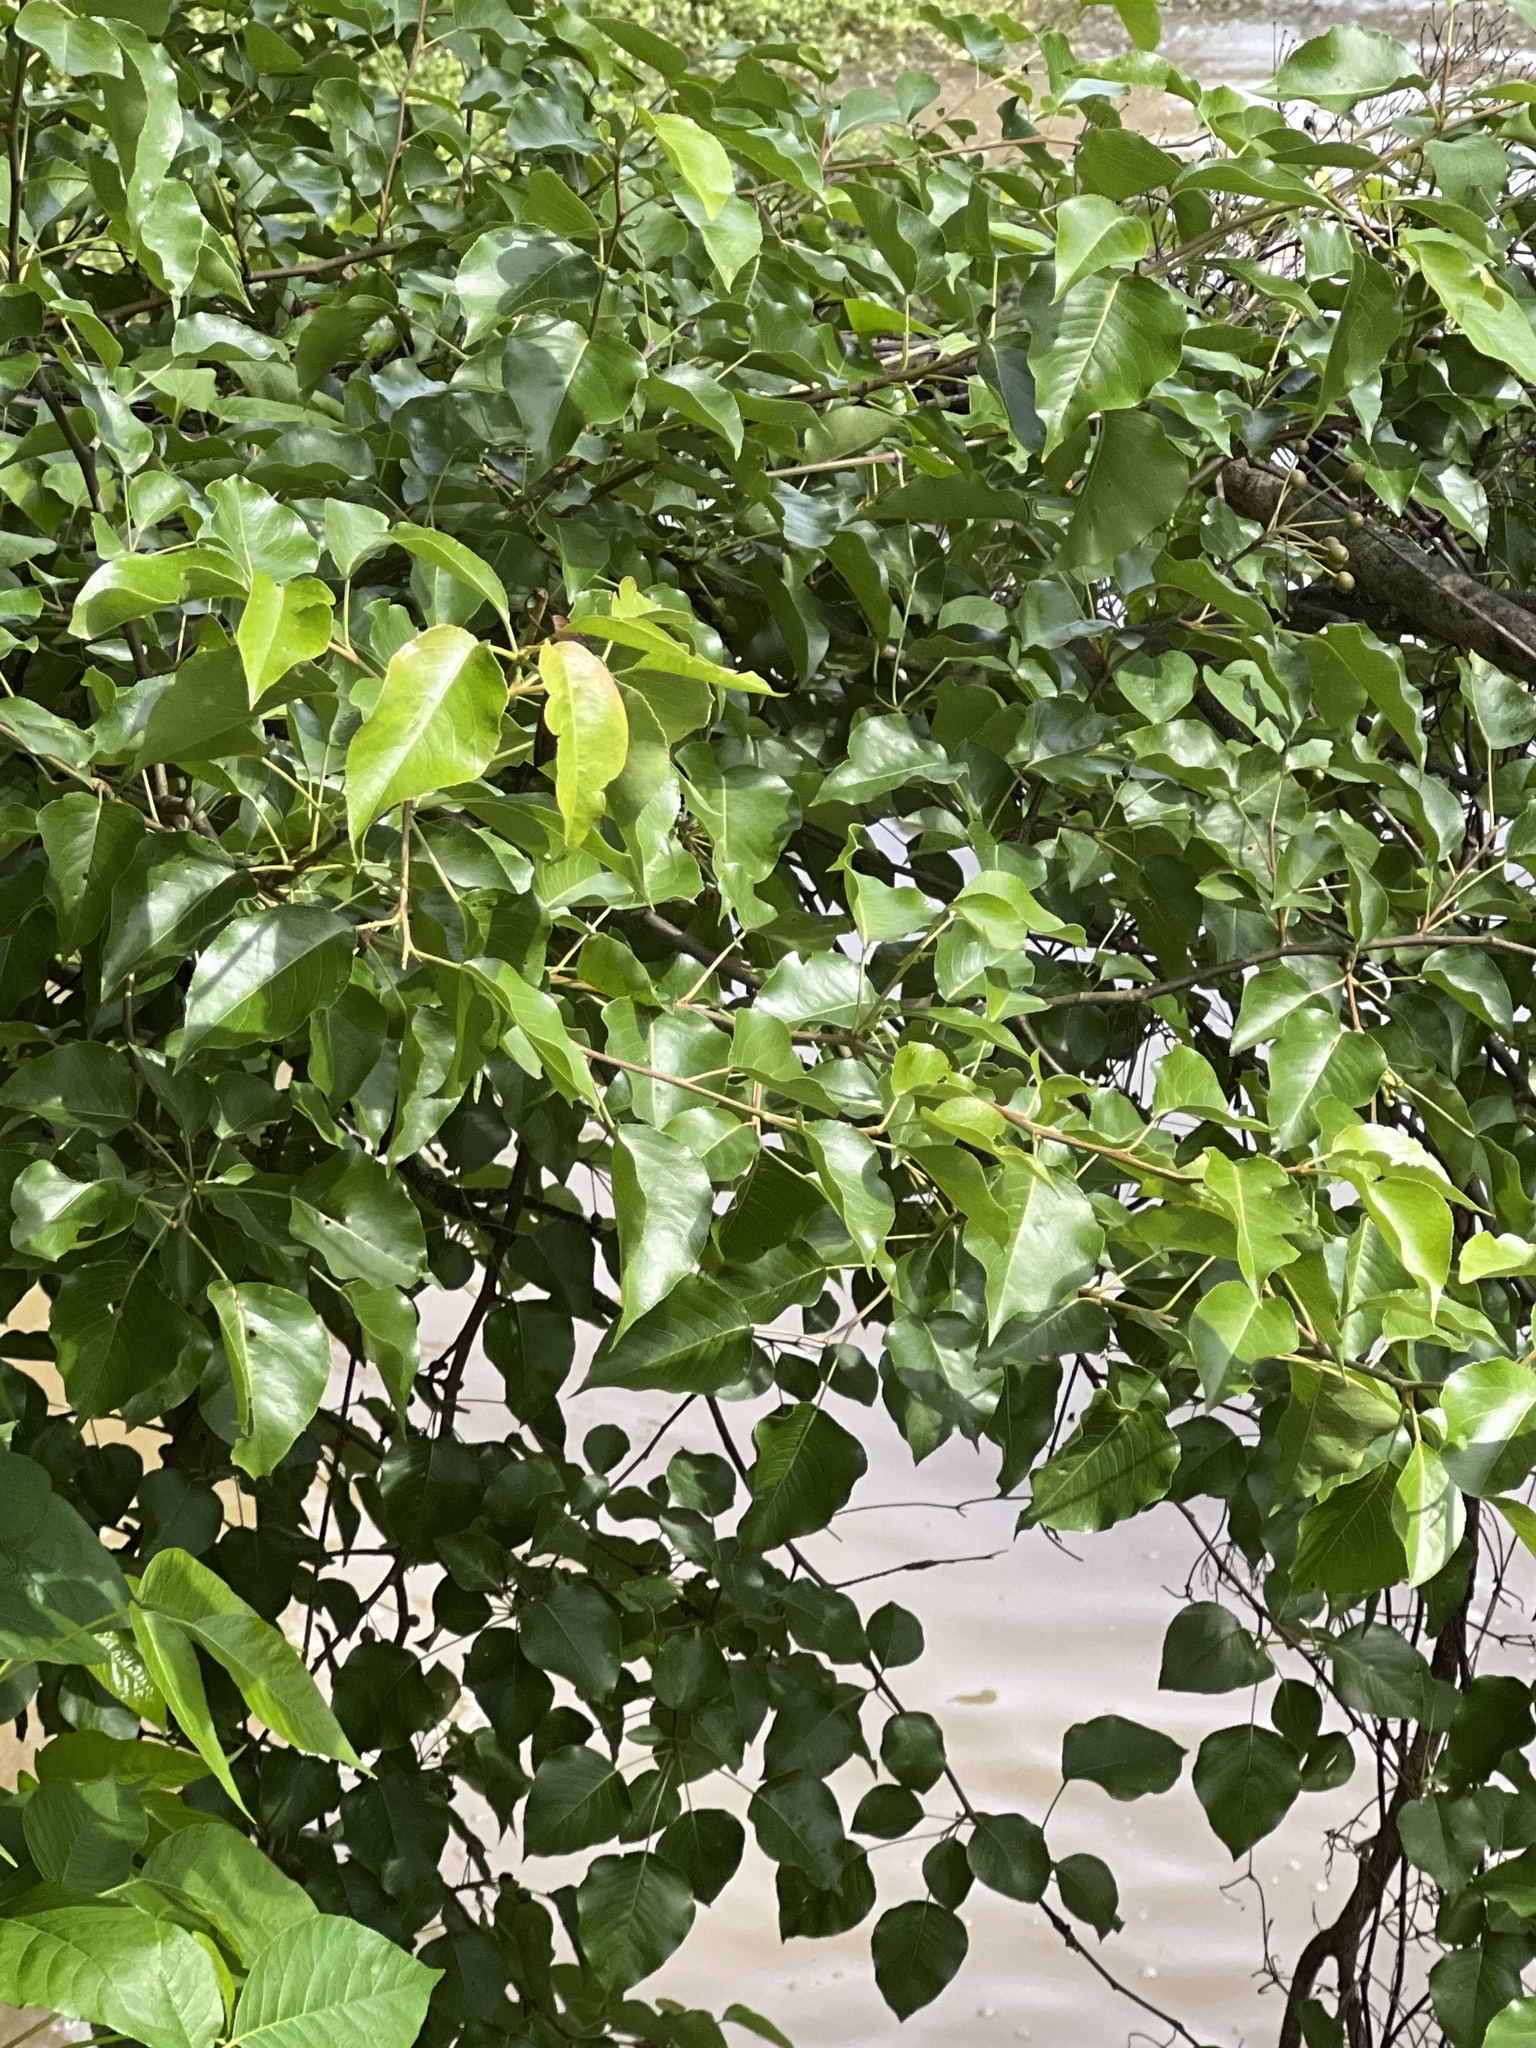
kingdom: Plantae
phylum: Tracheophyta
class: Magnoliopsida
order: Rosales
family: Rosaceae
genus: Pyrus
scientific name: Pyrus calleryana
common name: Callery pear
